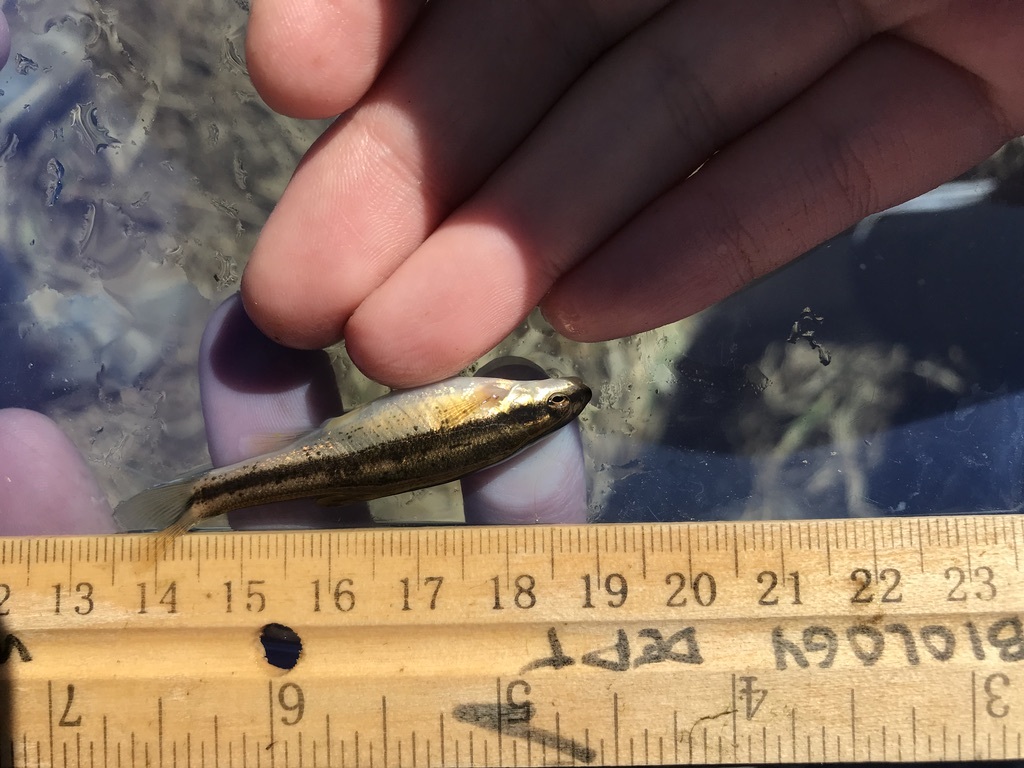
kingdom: Animalia
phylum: Chordata
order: Cypriniformes
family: Cyprinidae
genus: Rhinichthys
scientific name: Rhinichthys atratulus
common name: Eastern blacknose dace
